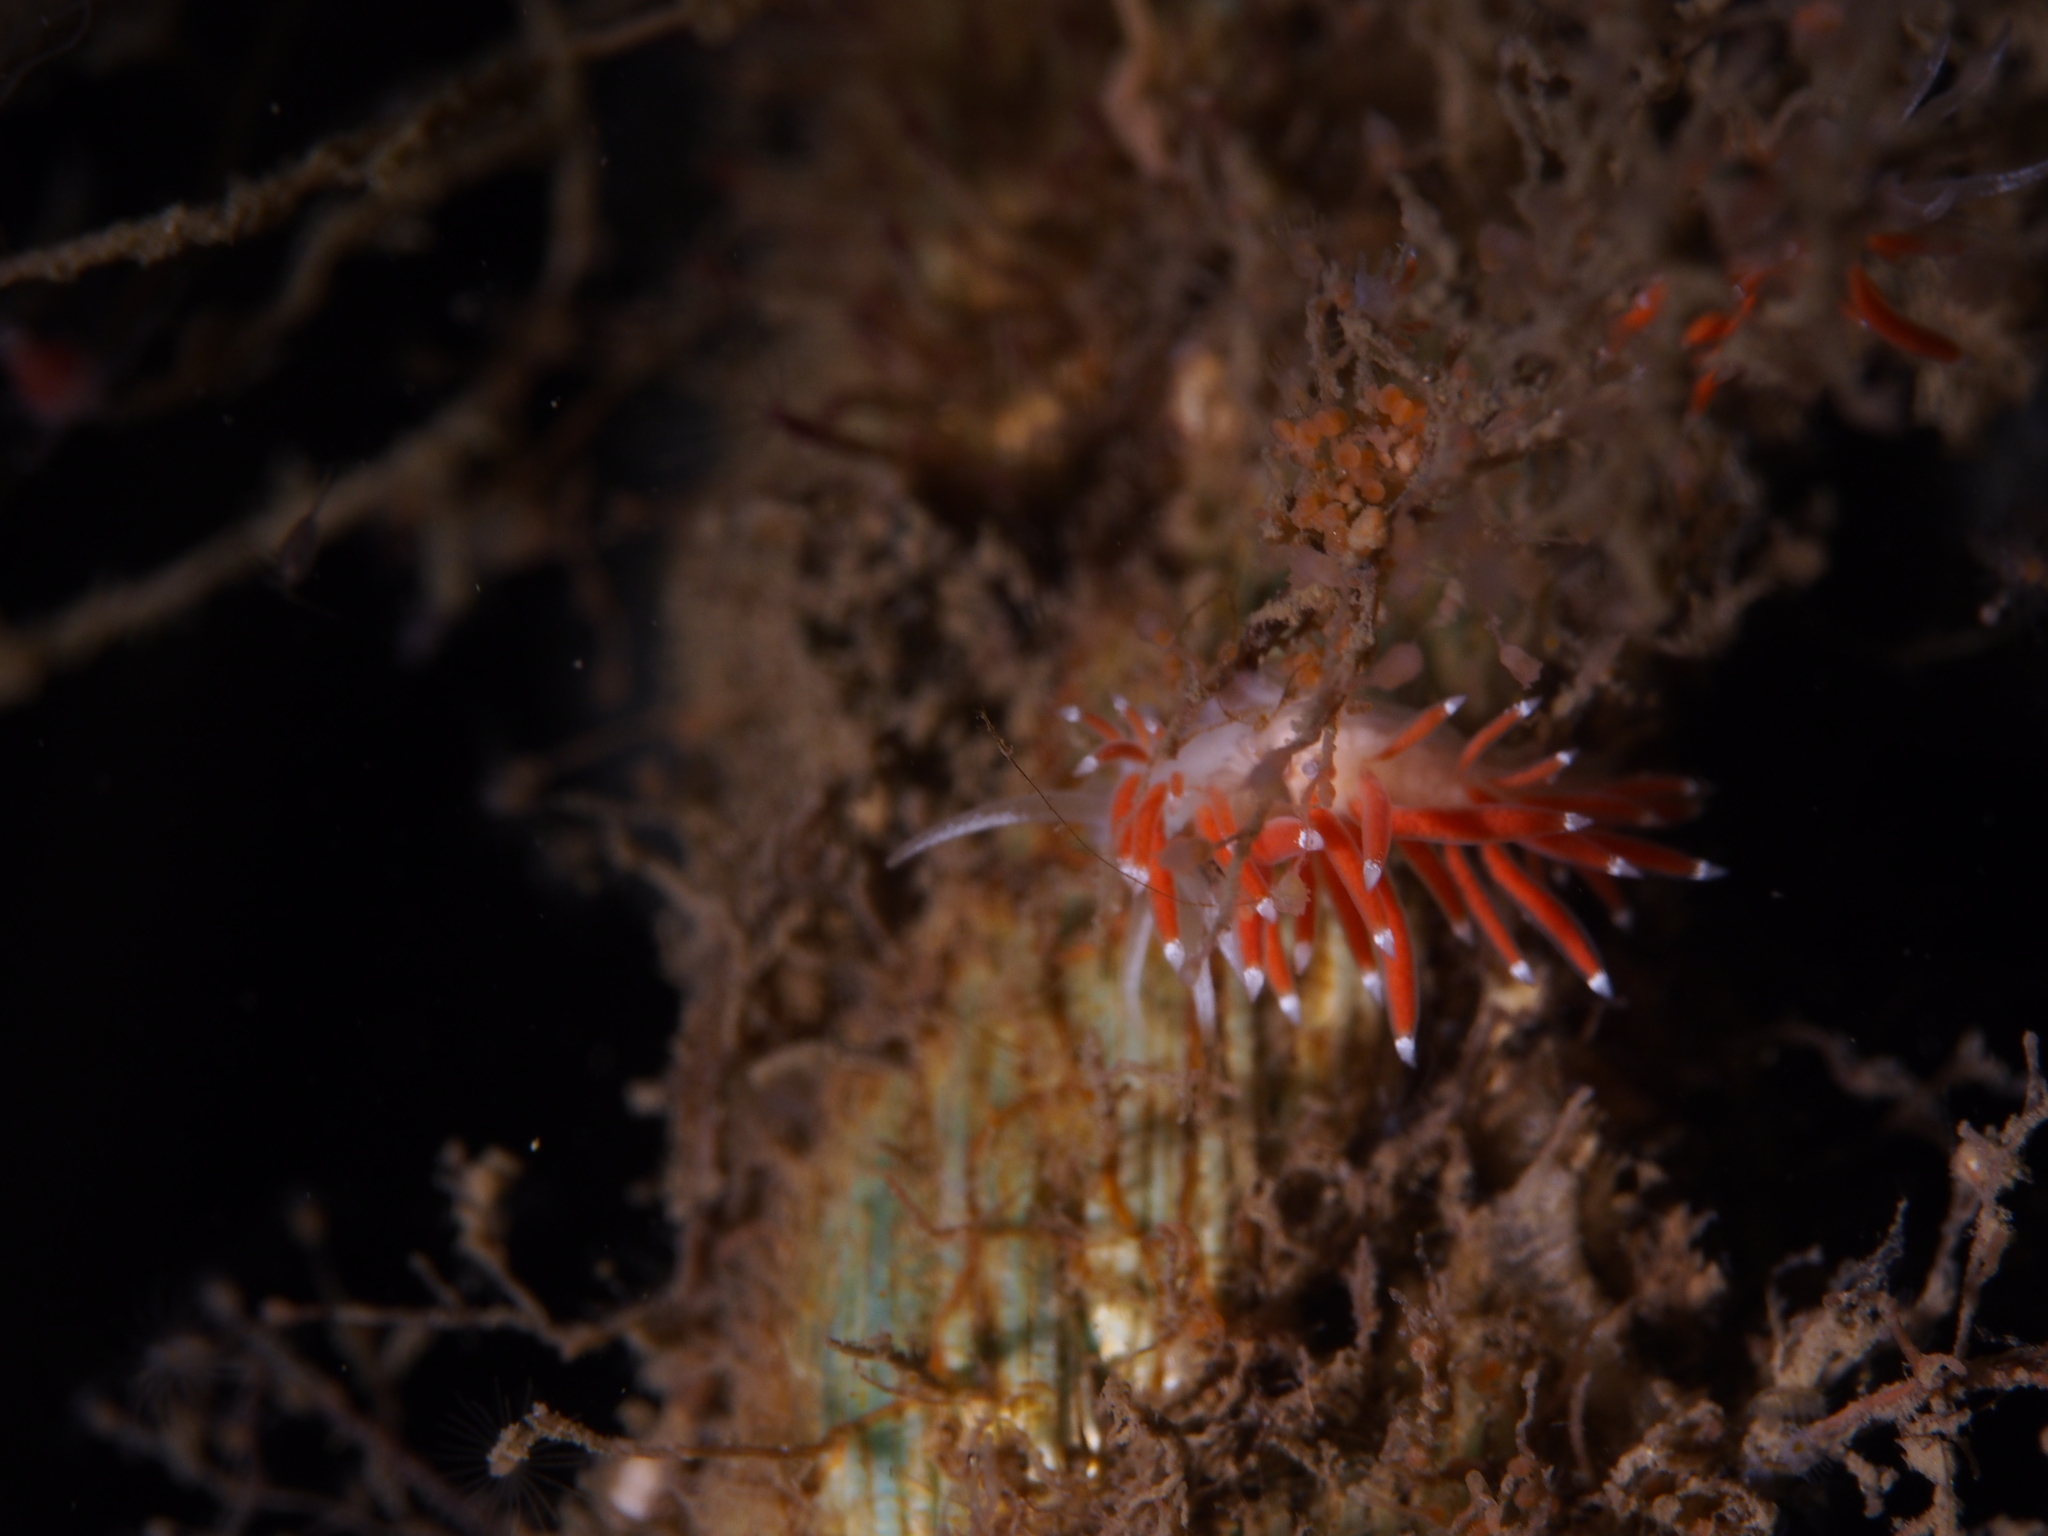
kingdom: Animalia
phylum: Mollusca
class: Gastropoda
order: Nudibranchia
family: Coryphellidae
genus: Coryphella
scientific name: Coryphella gracilis
